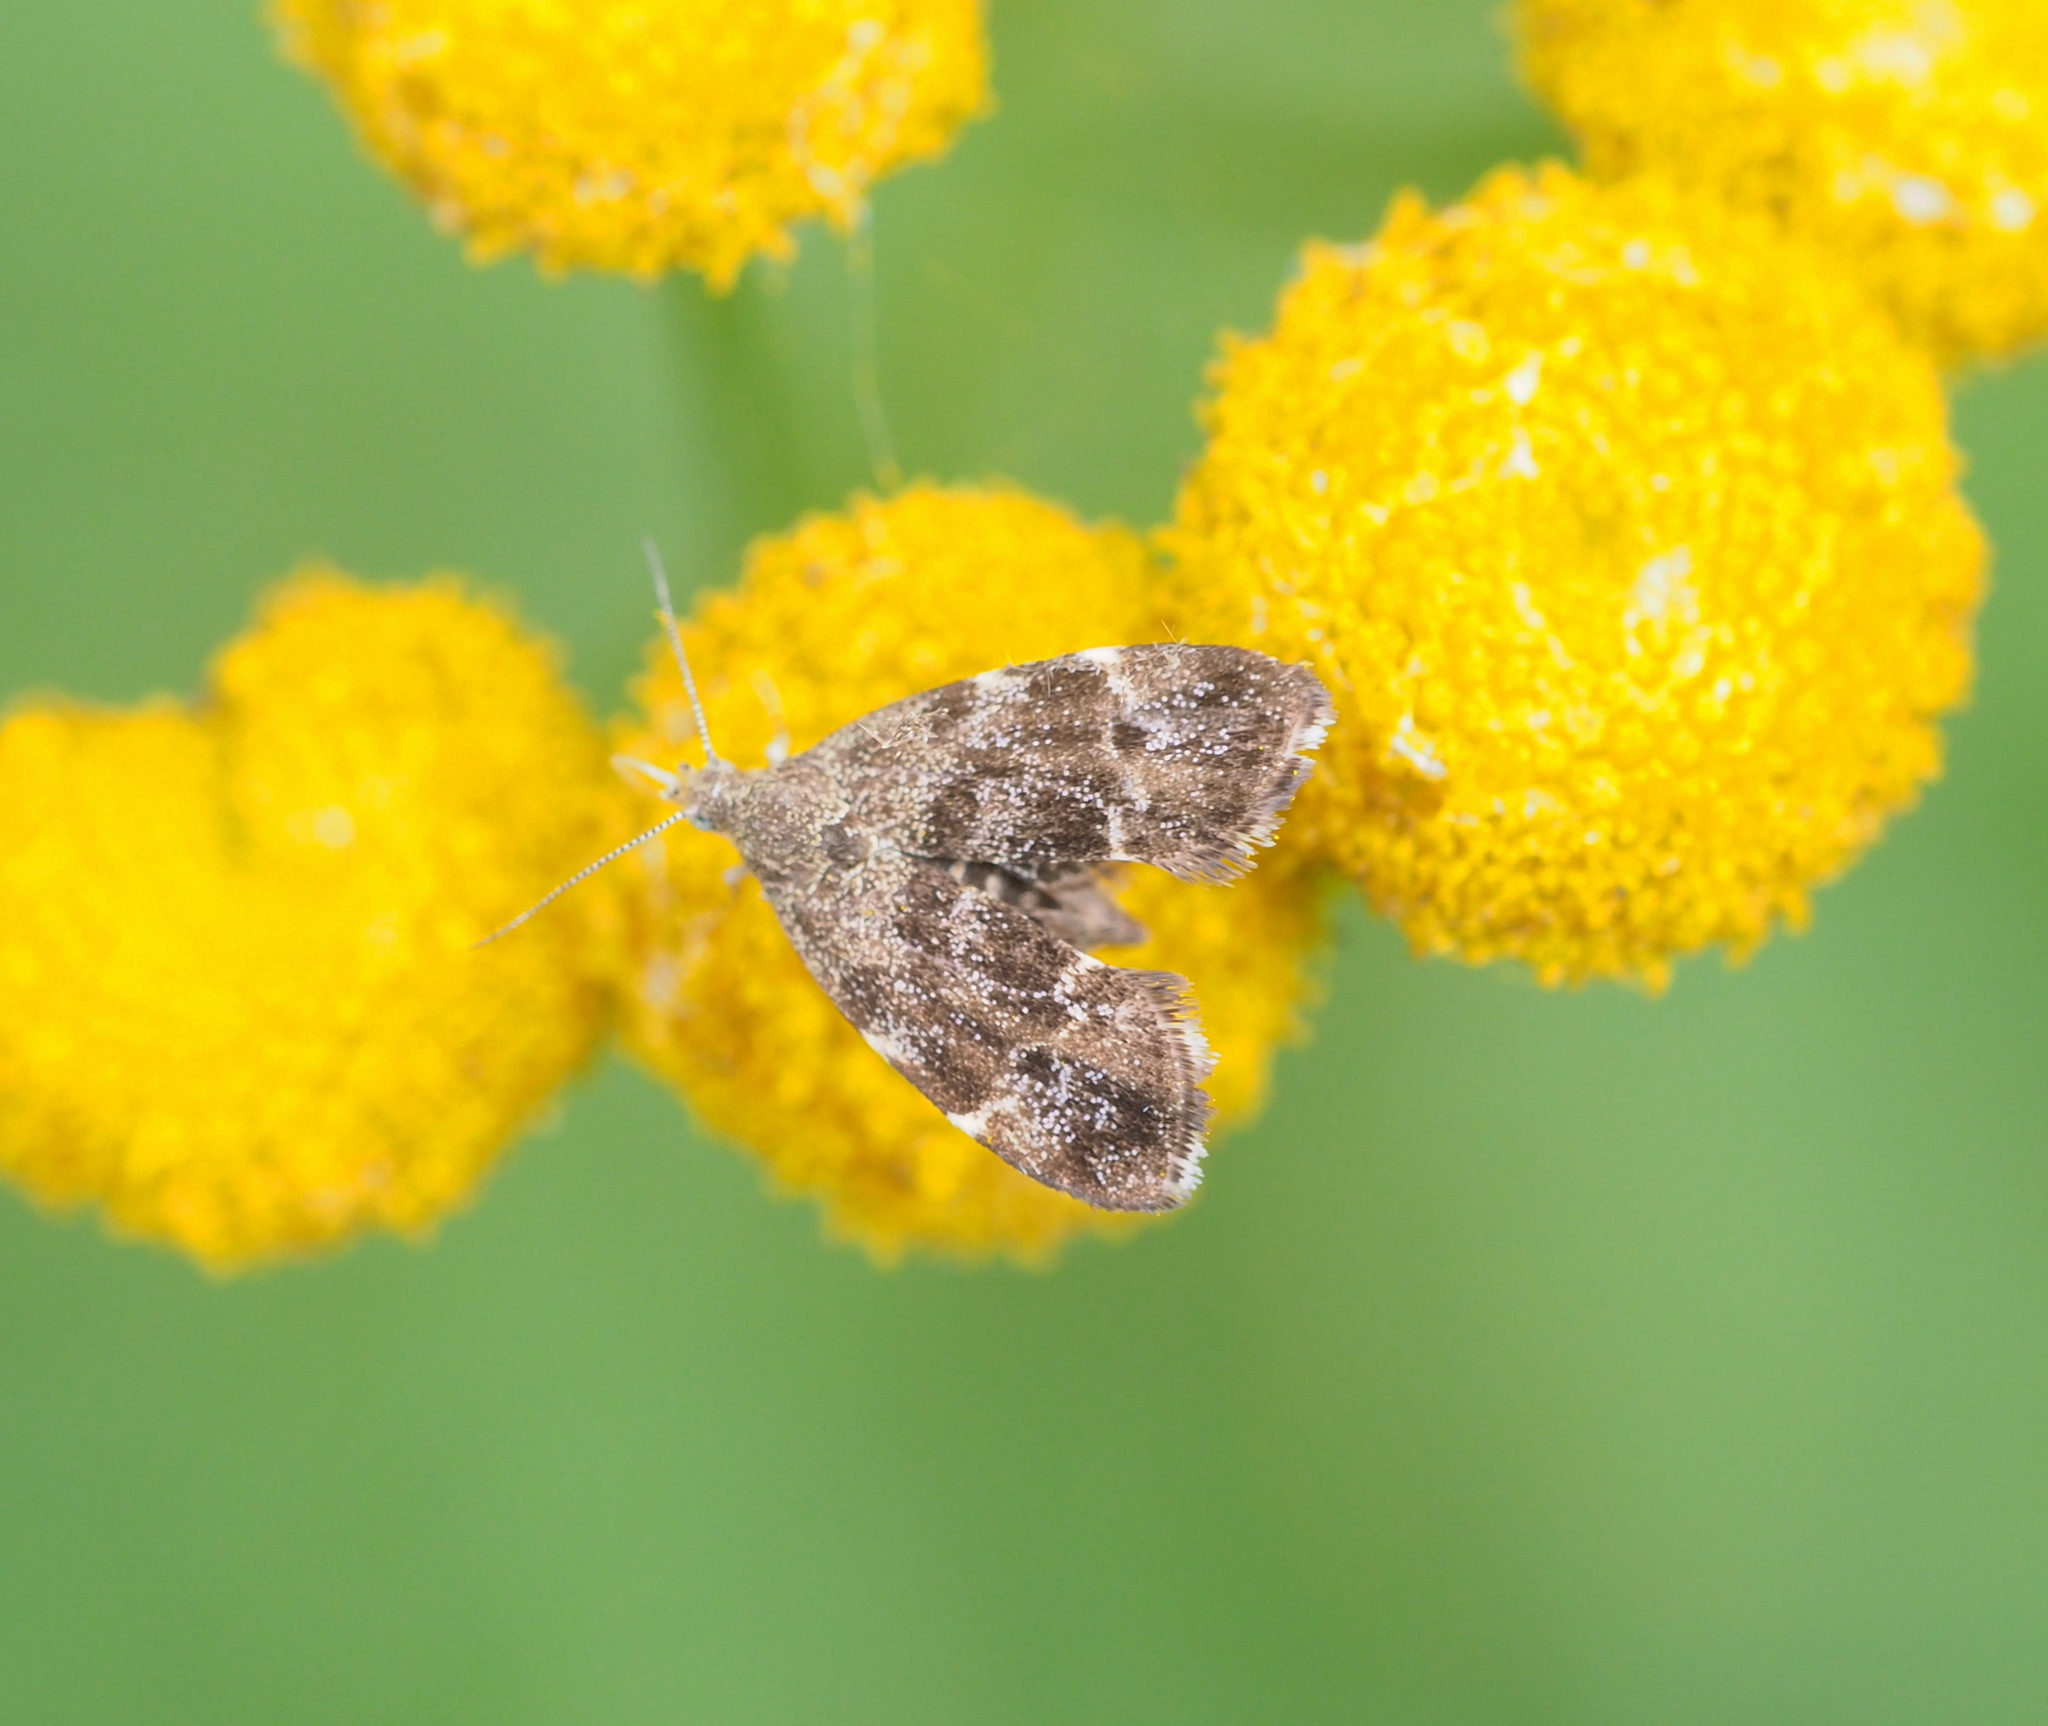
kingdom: Animalia
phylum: Arthropoda
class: Insecta
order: Lepidoptera
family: Choreutidae
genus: Anthophila
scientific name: Anthophila fabriciana
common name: Nettle-tap
